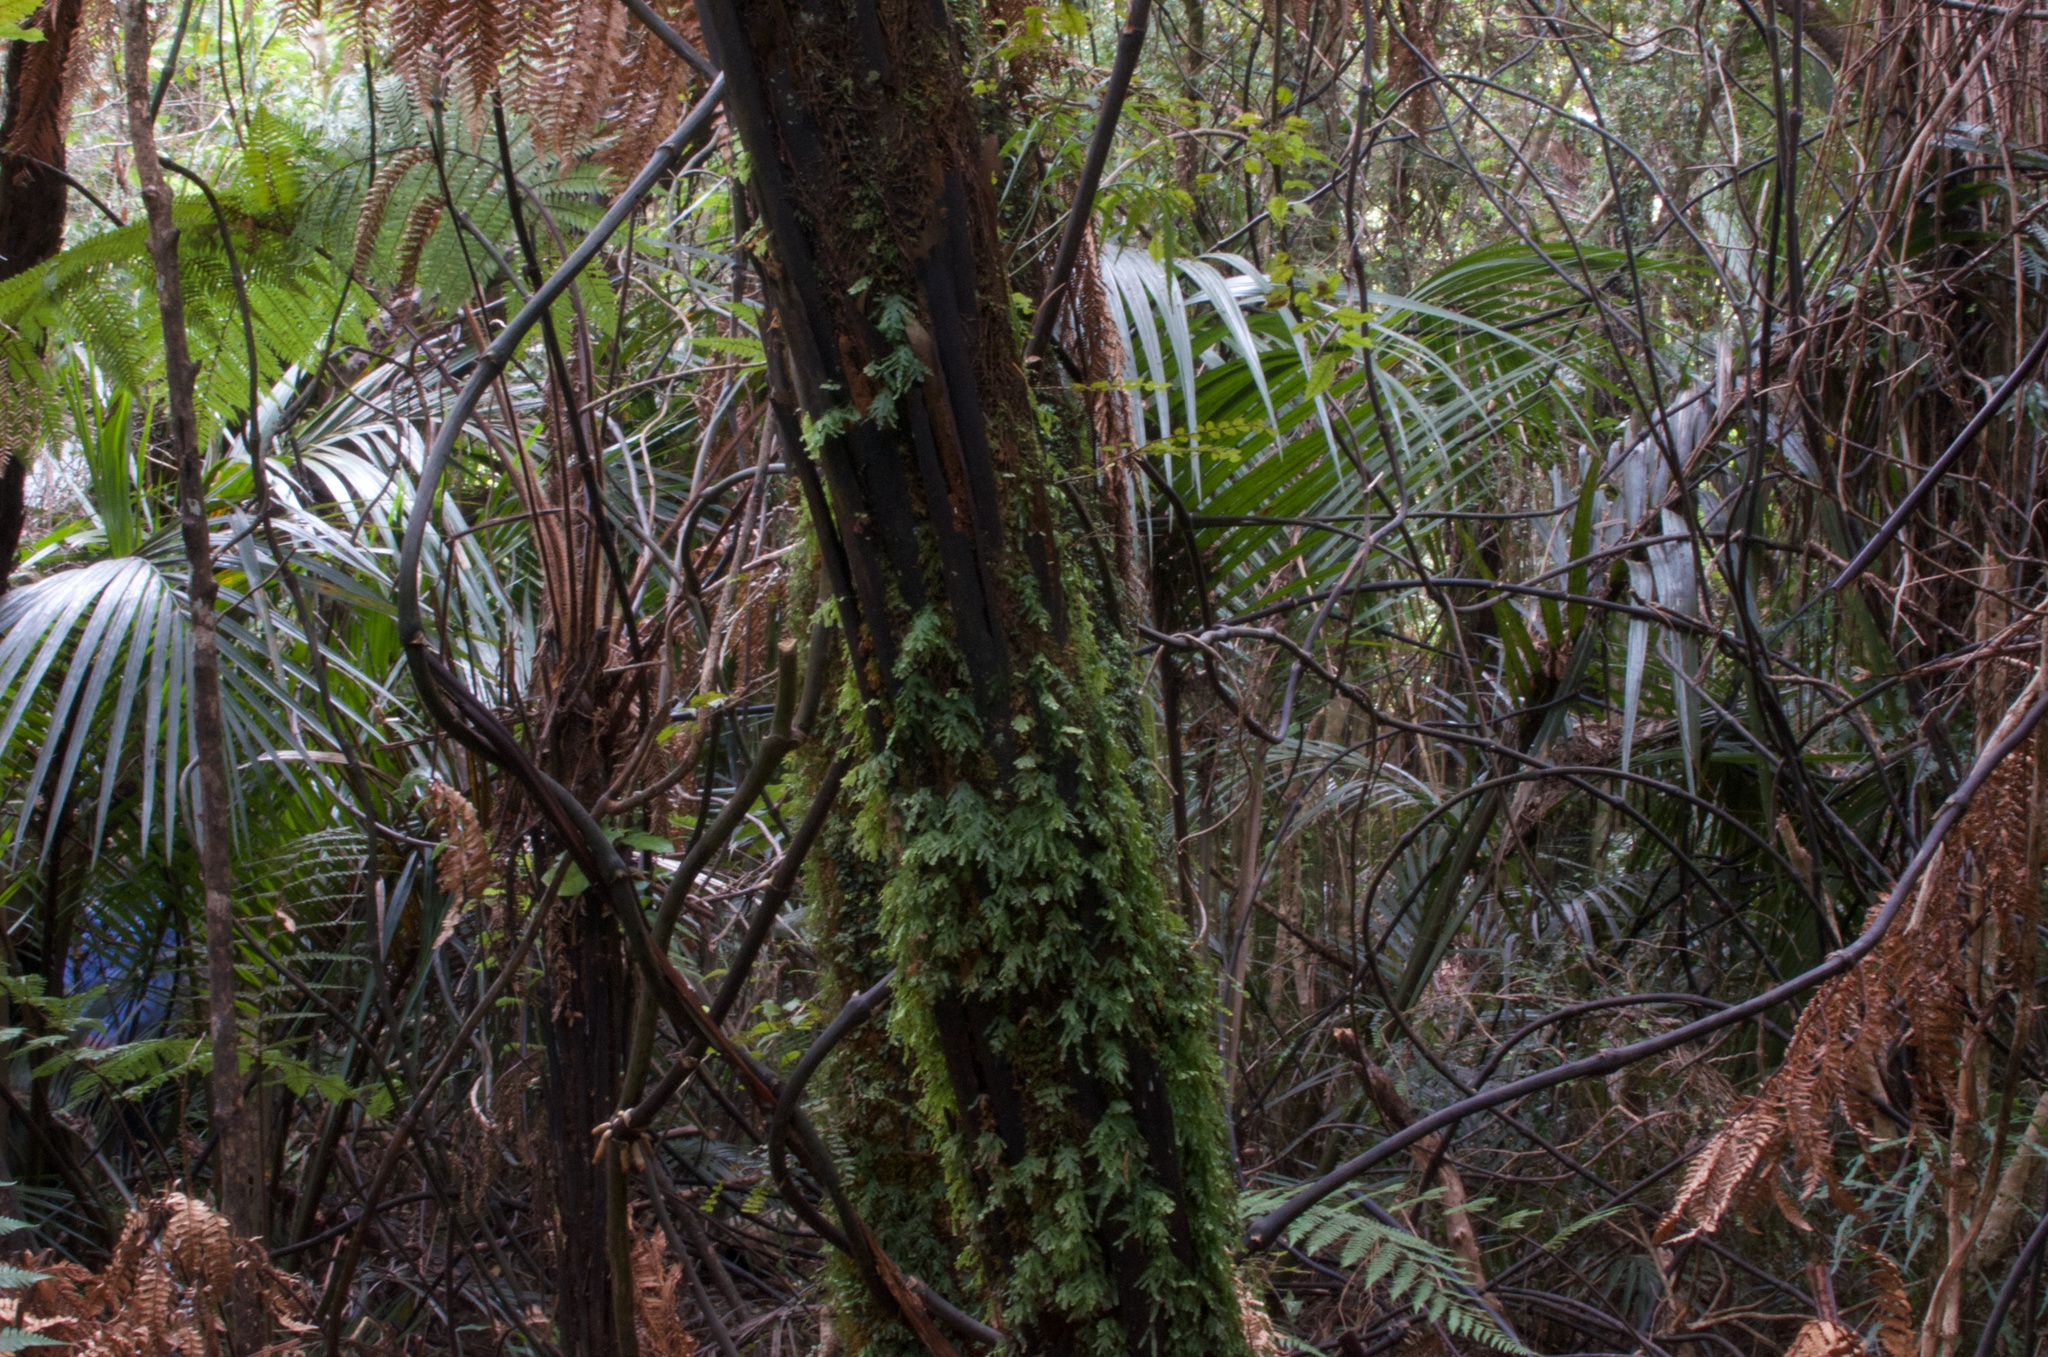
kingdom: Plantae
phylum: Tracheophyta
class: Liliopsida
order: Liliales
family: Ripogonaceae
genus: Ripogonum
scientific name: Ripogonum scandens
